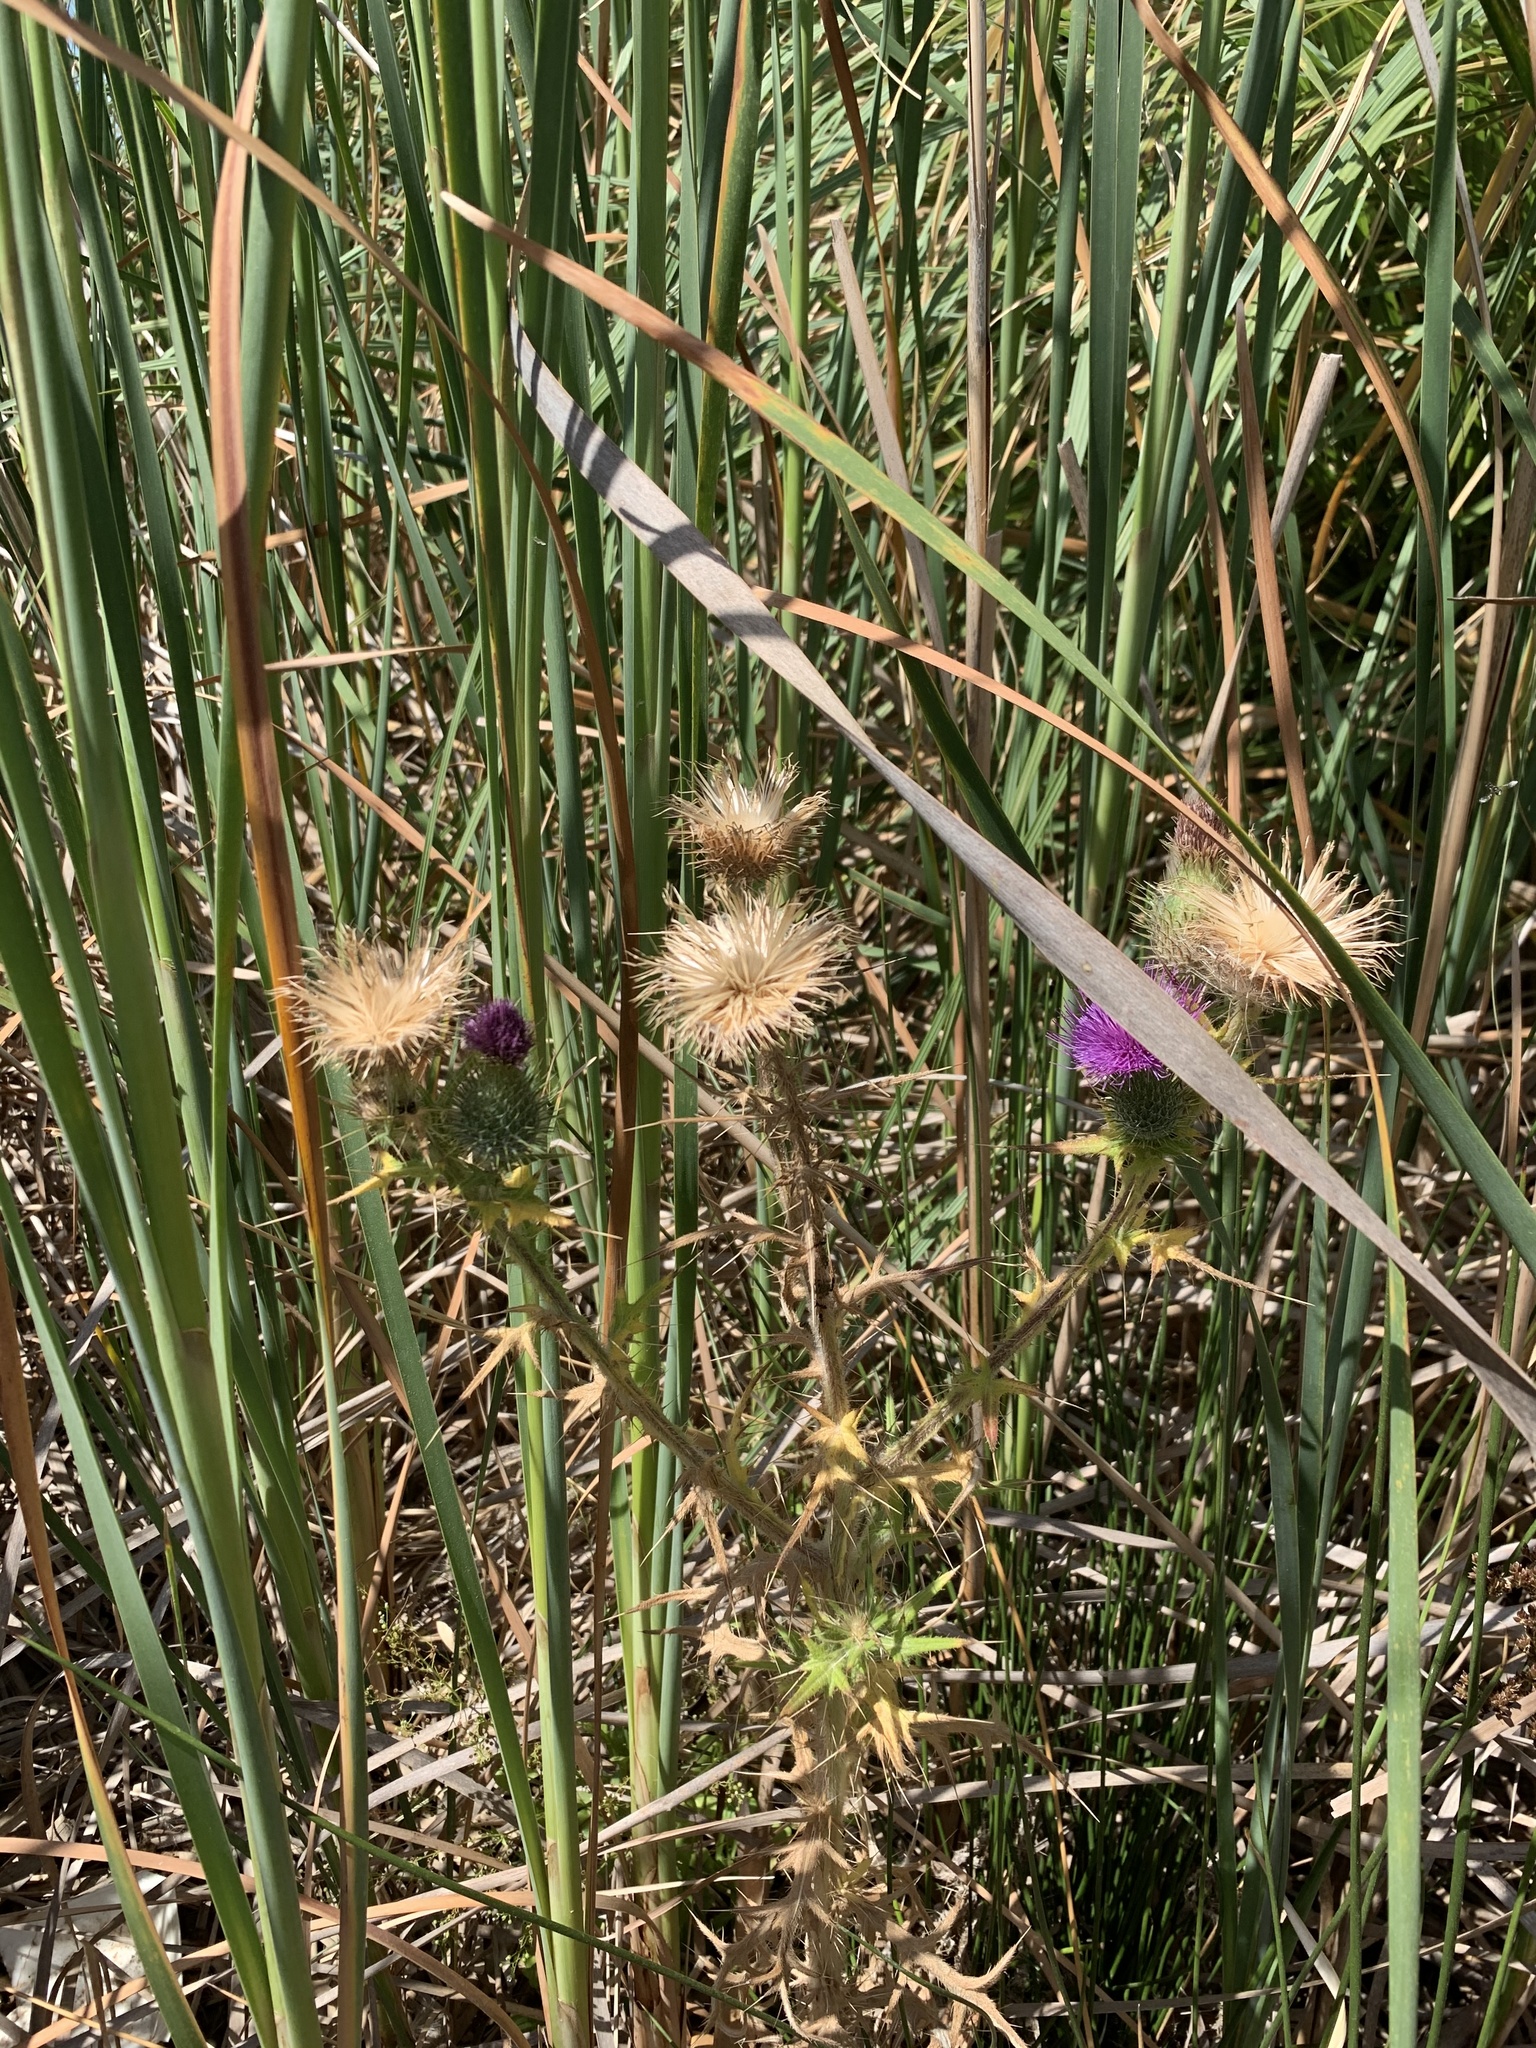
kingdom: Plantae
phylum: Tracheophyta
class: Magnoliopsida
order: Asterales
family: Asteraceae
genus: Cirsium
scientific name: Cirsium vulgare
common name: Bull thistle
